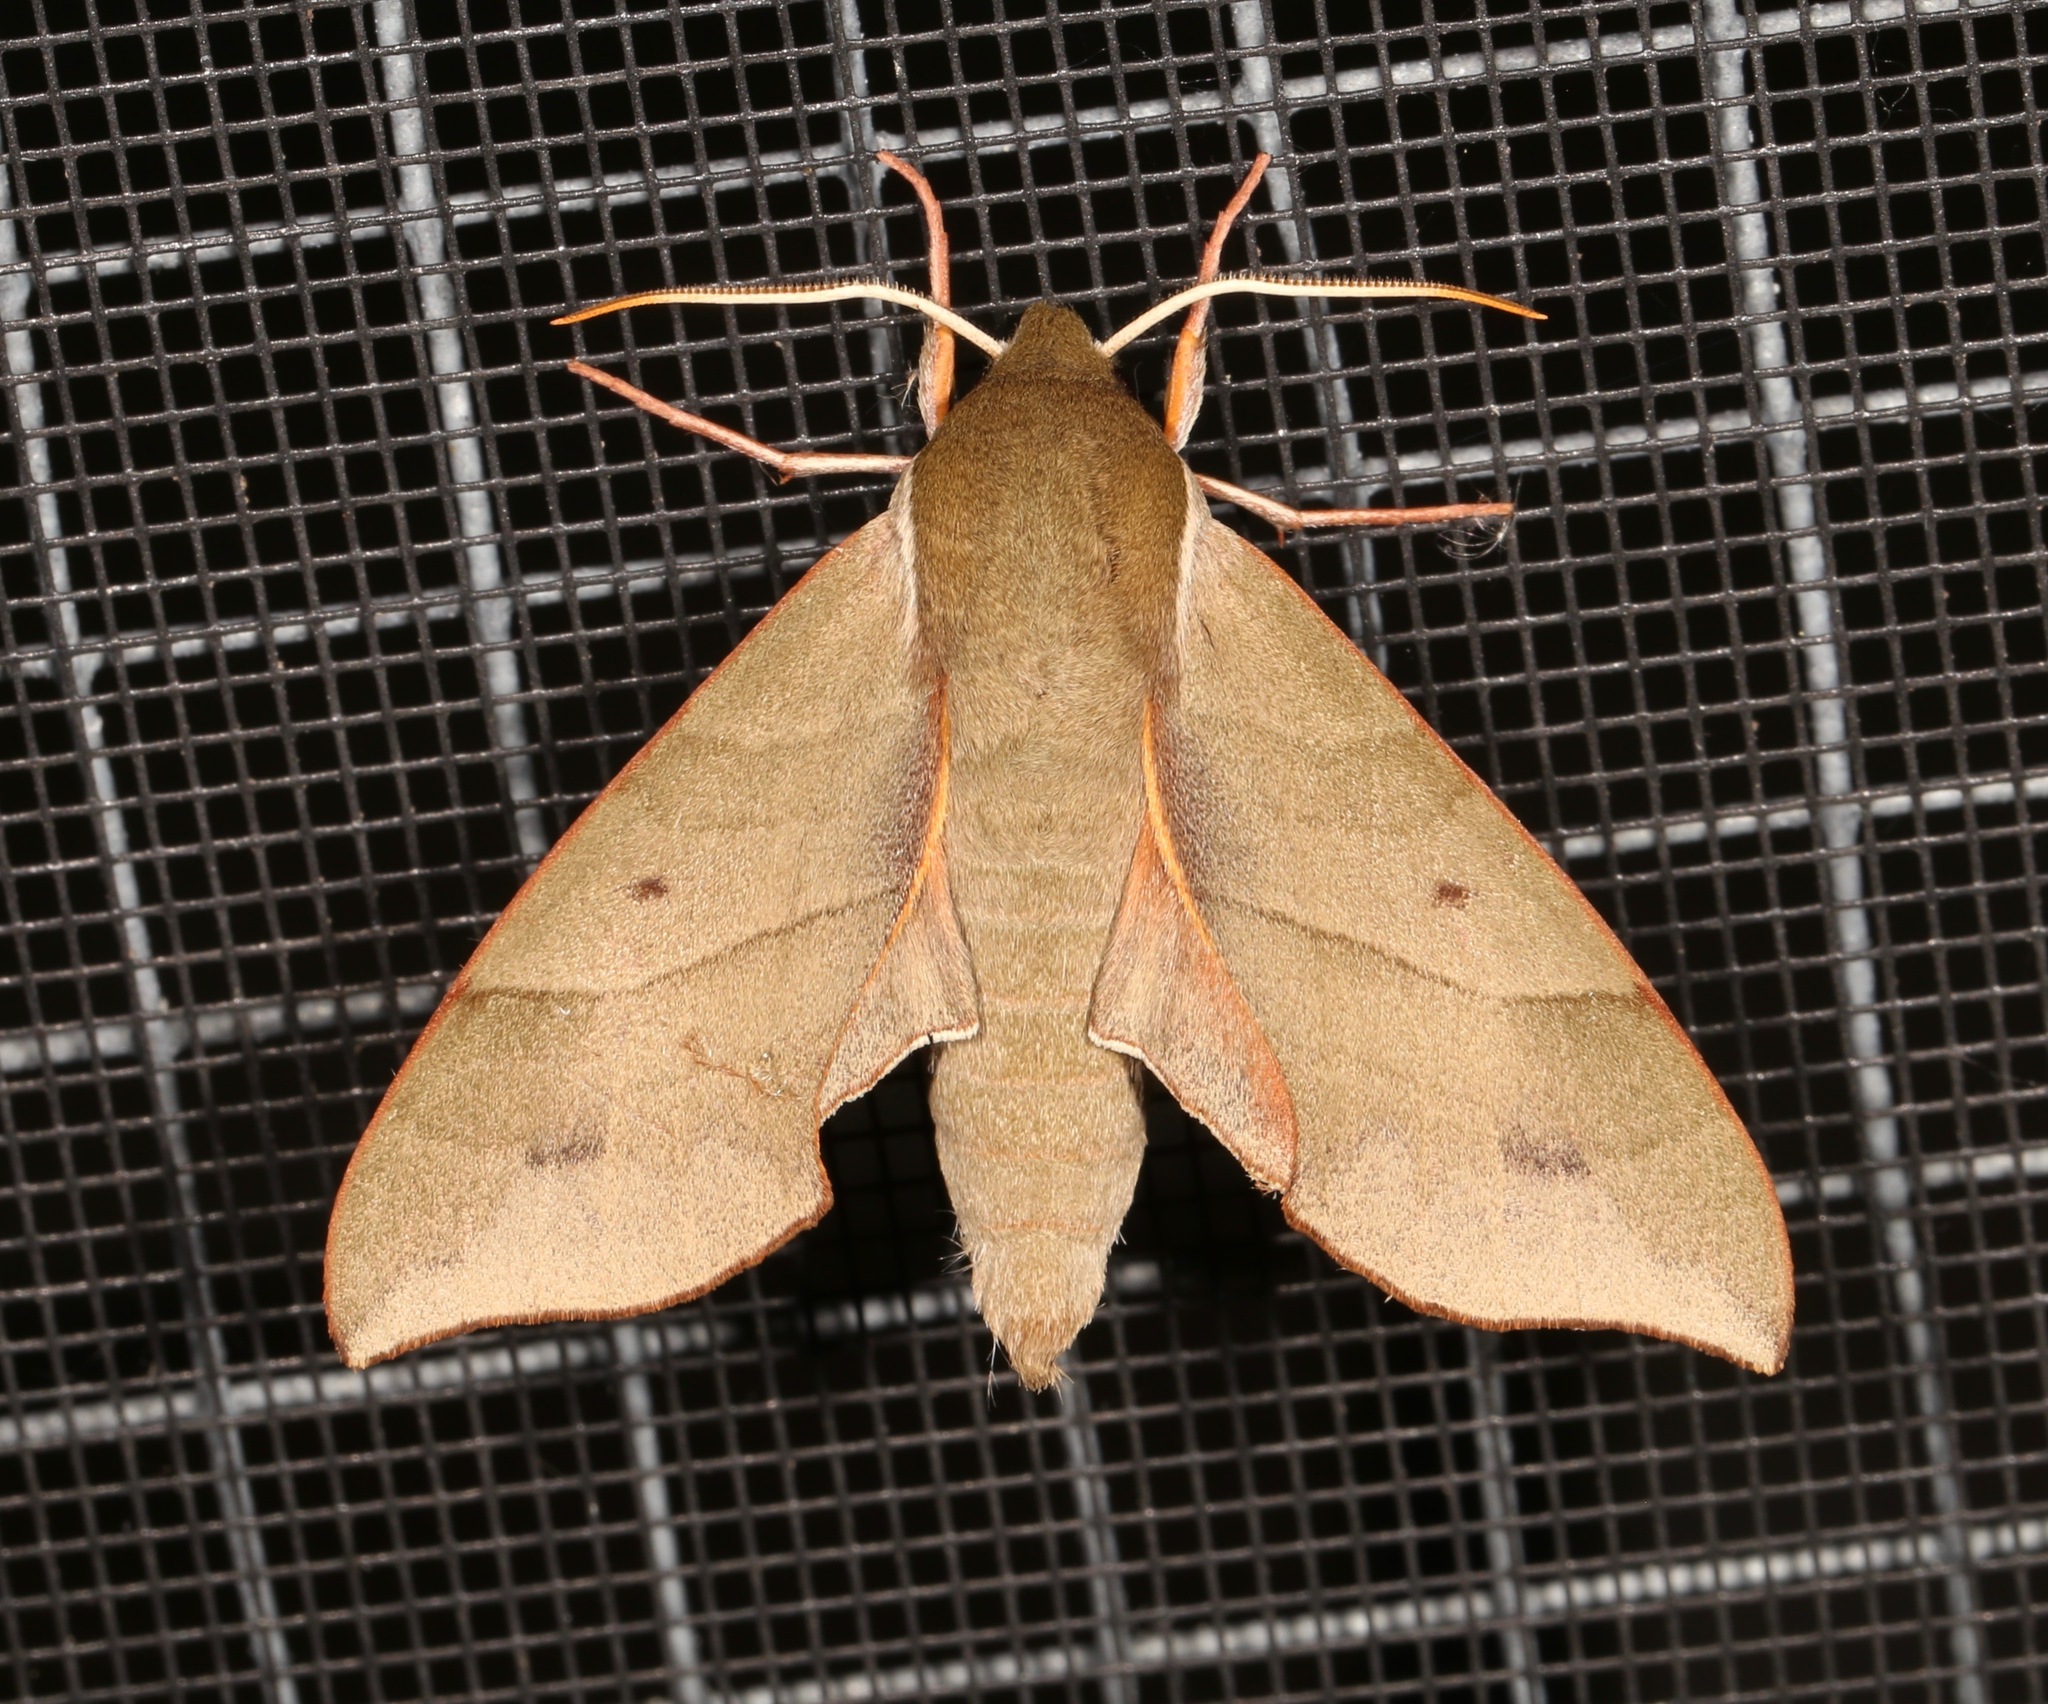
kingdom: Animalia
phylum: Arthropoda
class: Insecta
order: Lepidoptera
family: Sphingidae
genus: Darapsa
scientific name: Darapsa myron
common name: Hog sphinx
